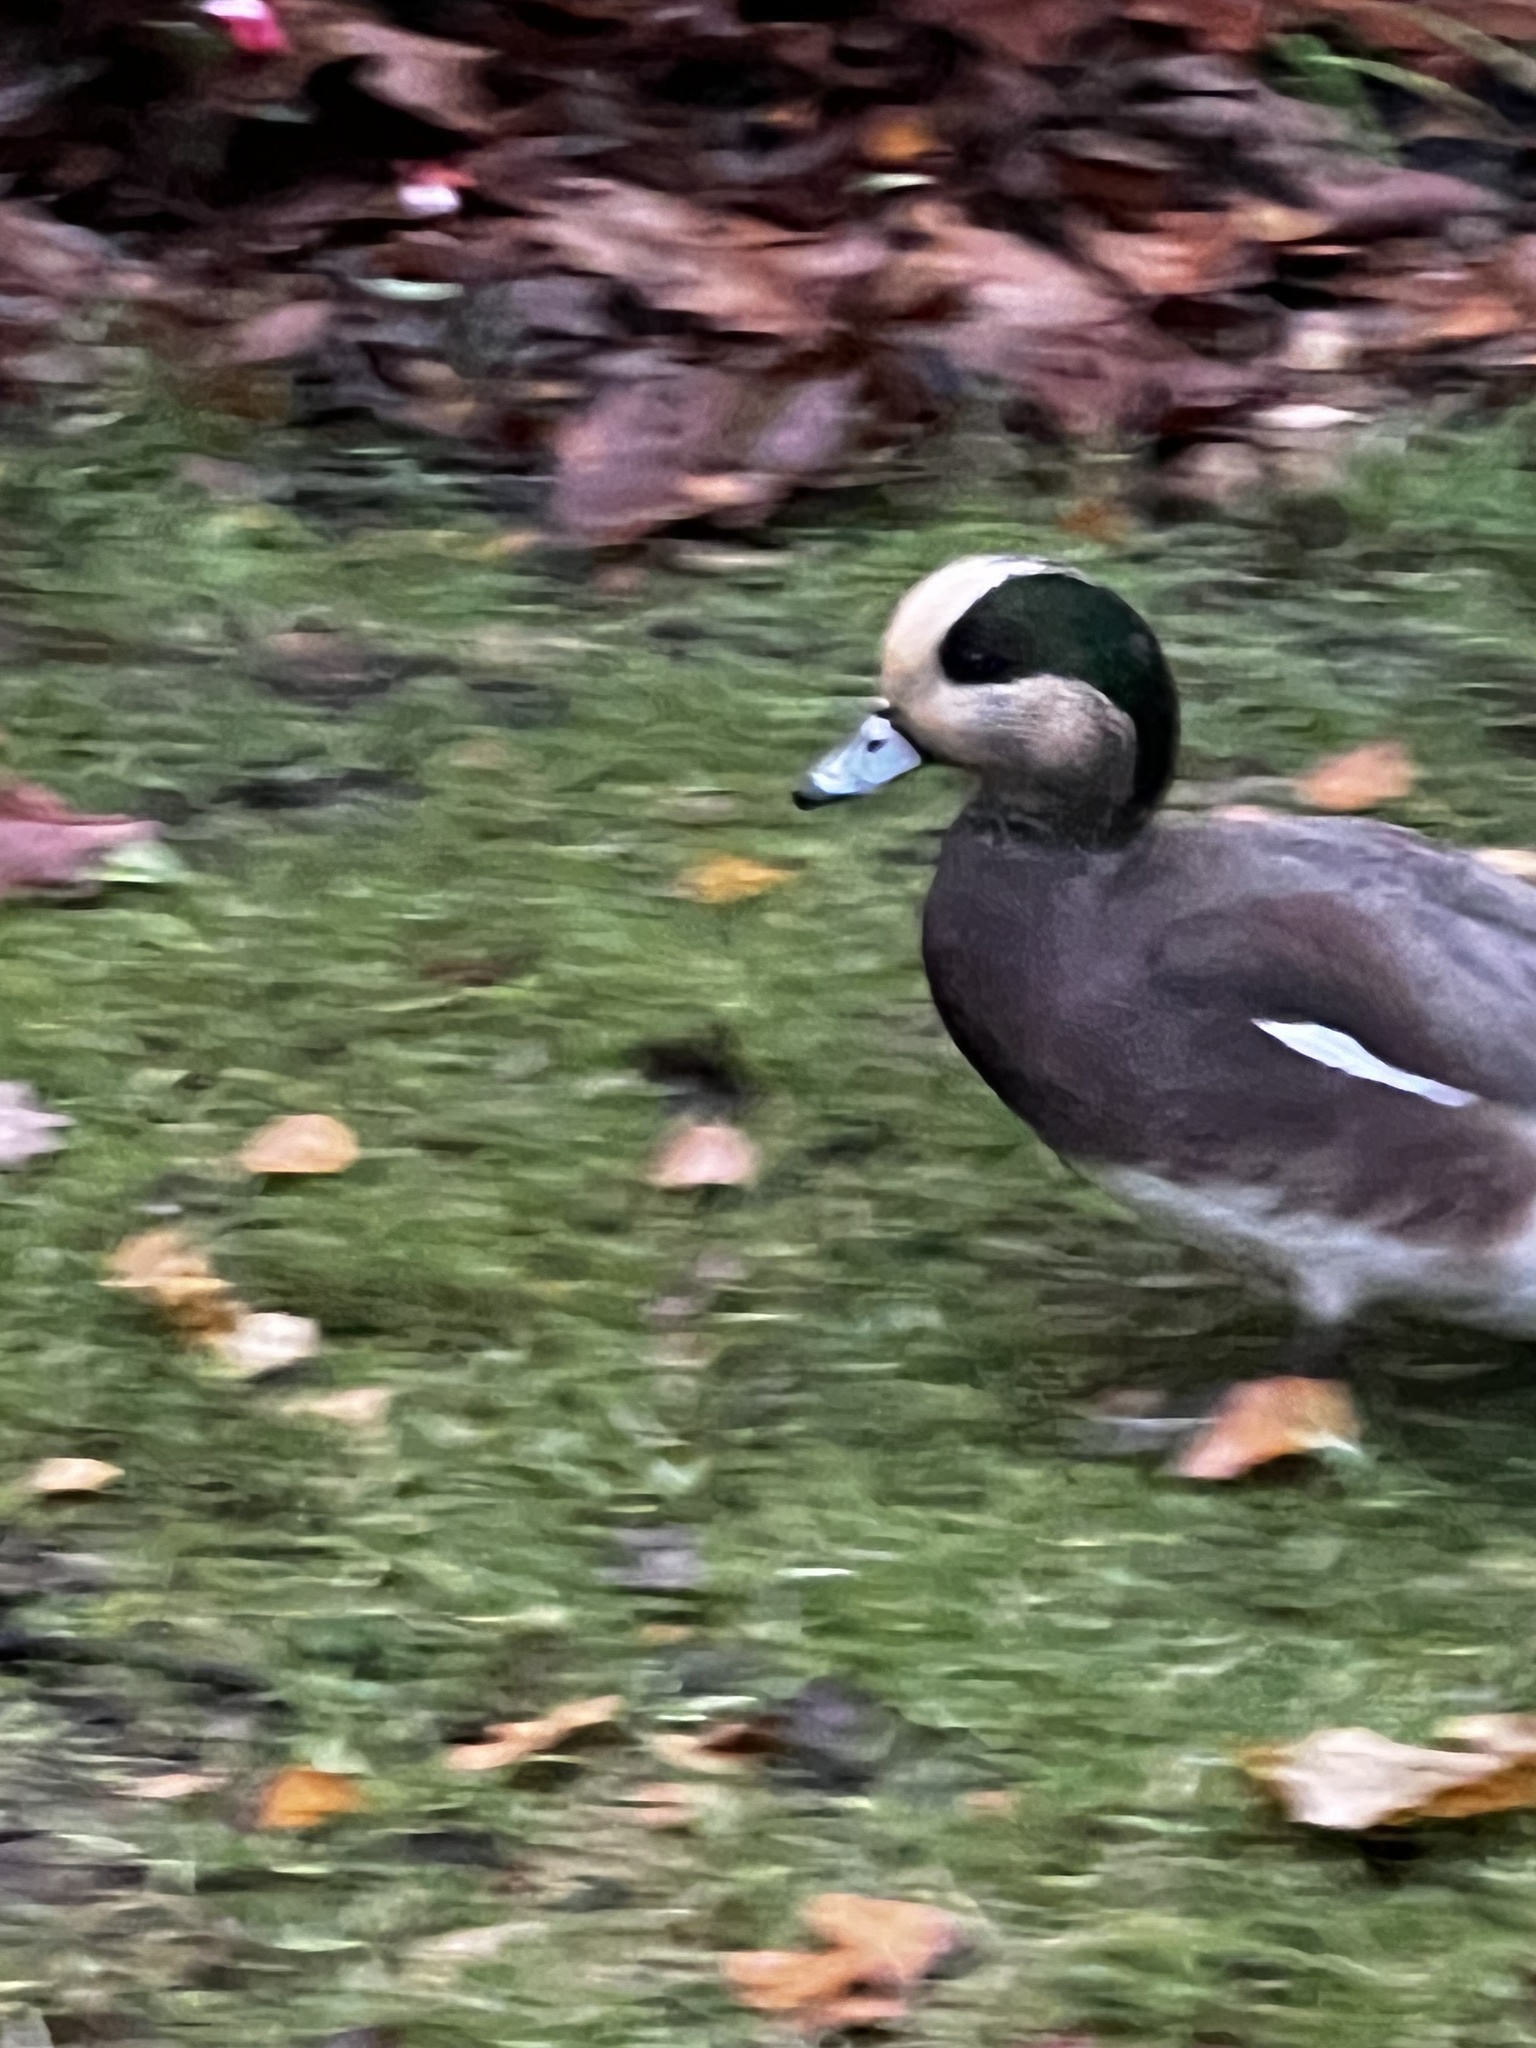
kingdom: Animalia
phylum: Chordata
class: Aves
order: Anseriformes
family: Anatidae
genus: Mareca
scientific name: Mareca americana
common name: American wigeon
